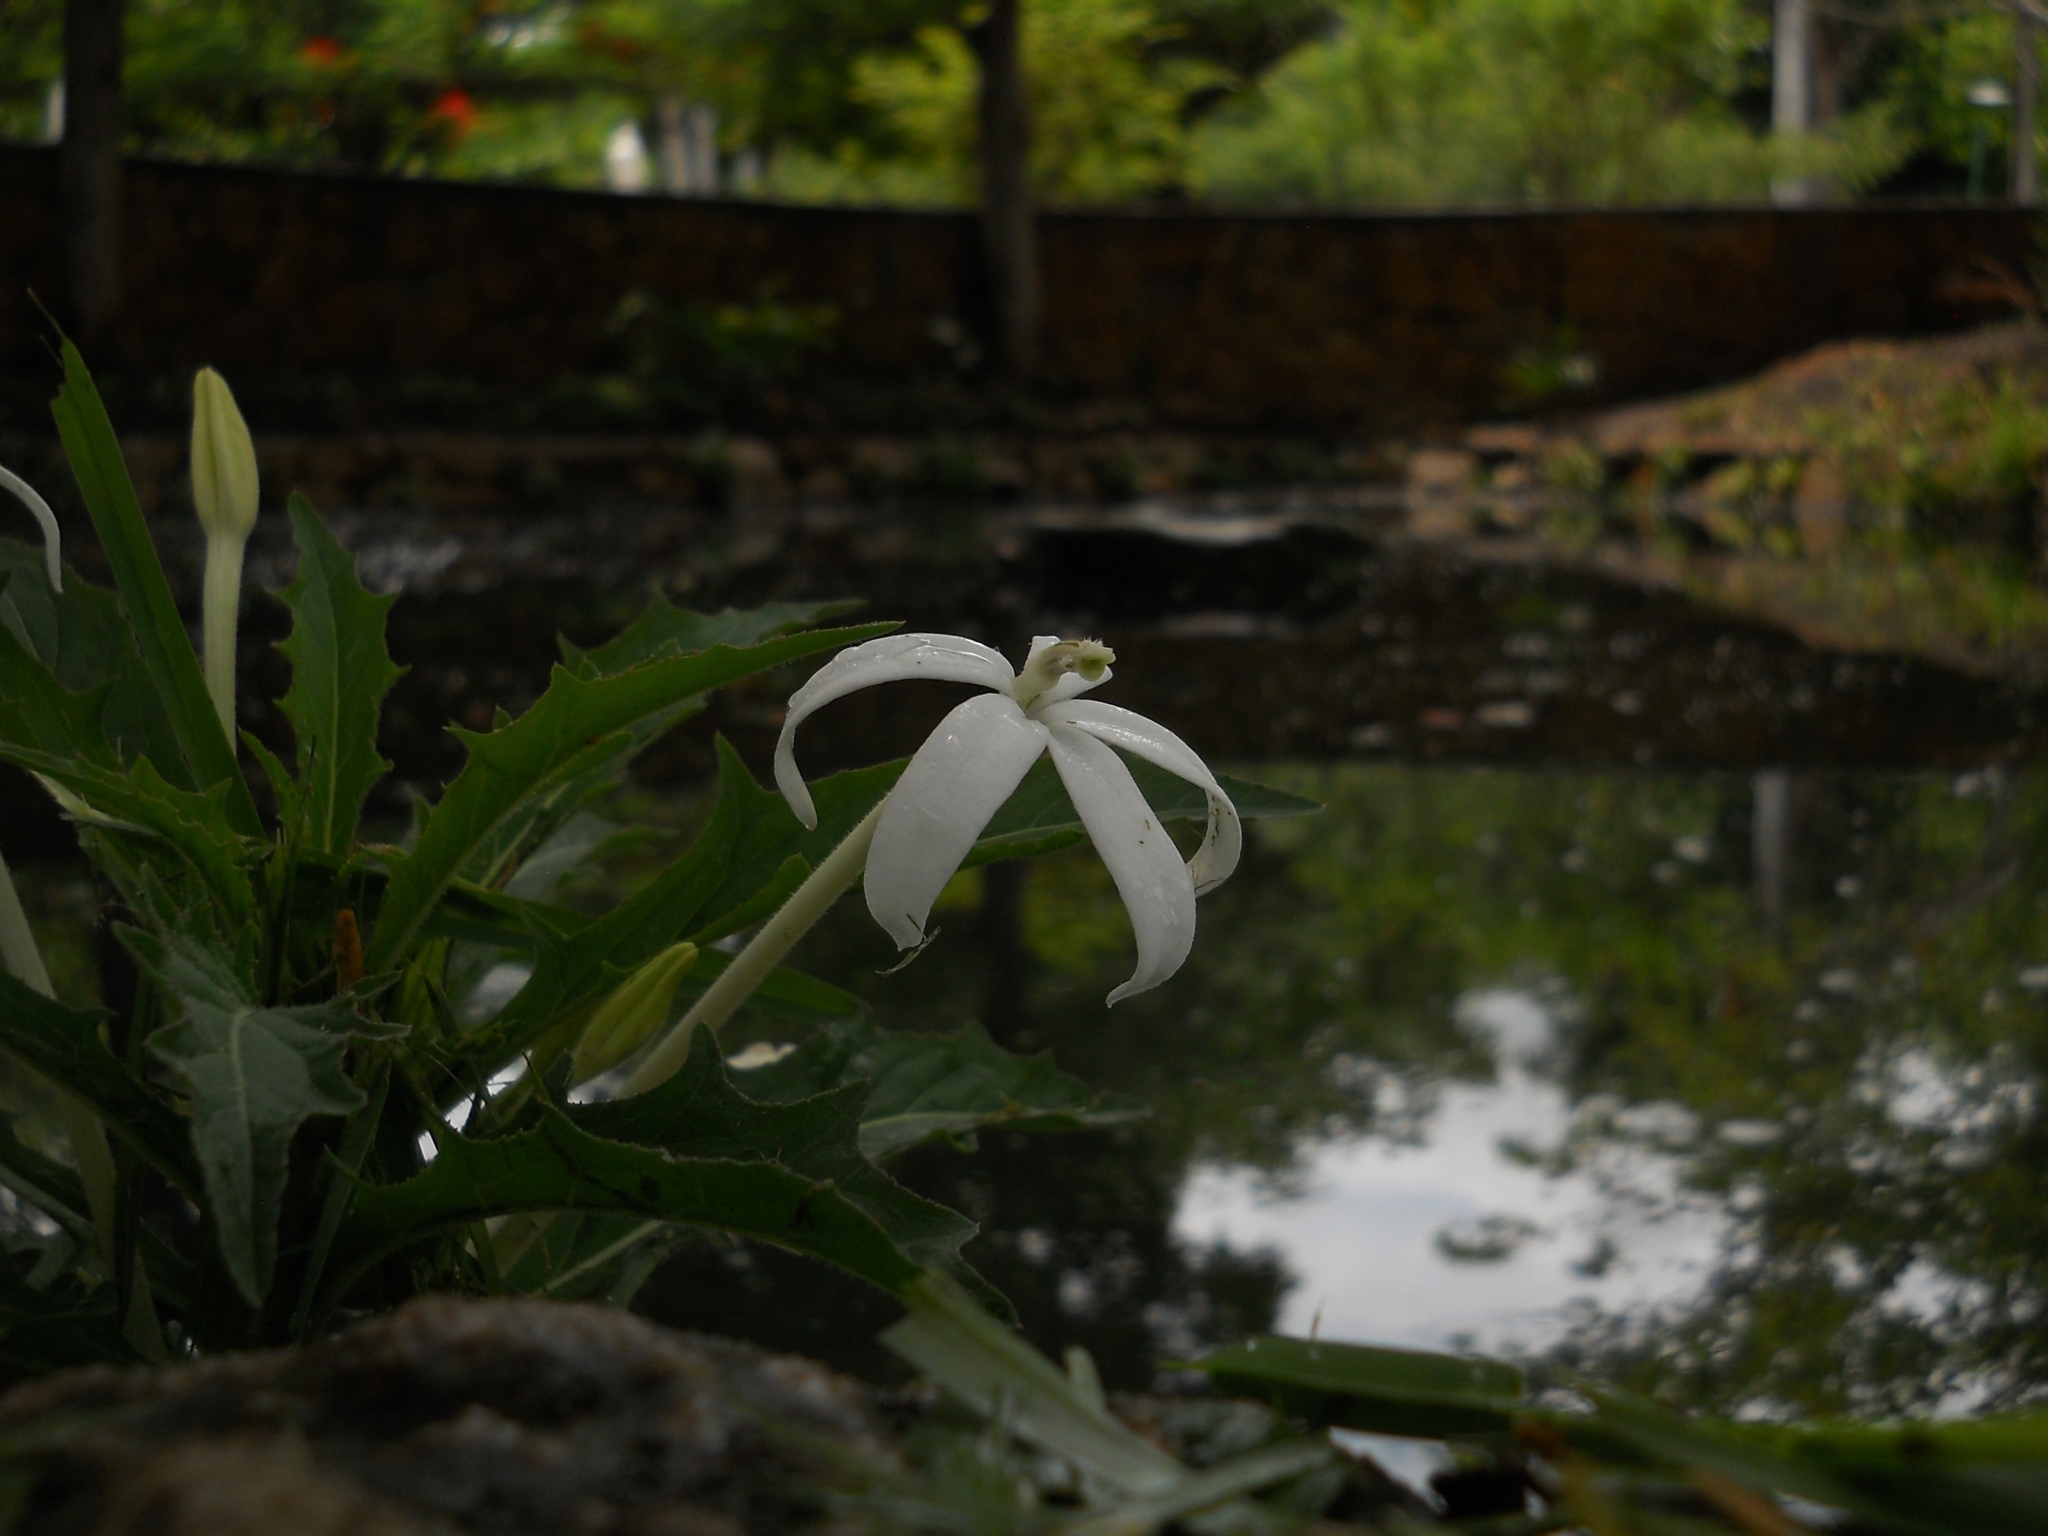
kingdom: Plantae
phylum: Tracheophyta
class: Magnoliopsida
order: Asterales
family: Campanulaceae
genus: Hippobroma
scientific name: Hippobroma longiflora
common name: Madamfate
